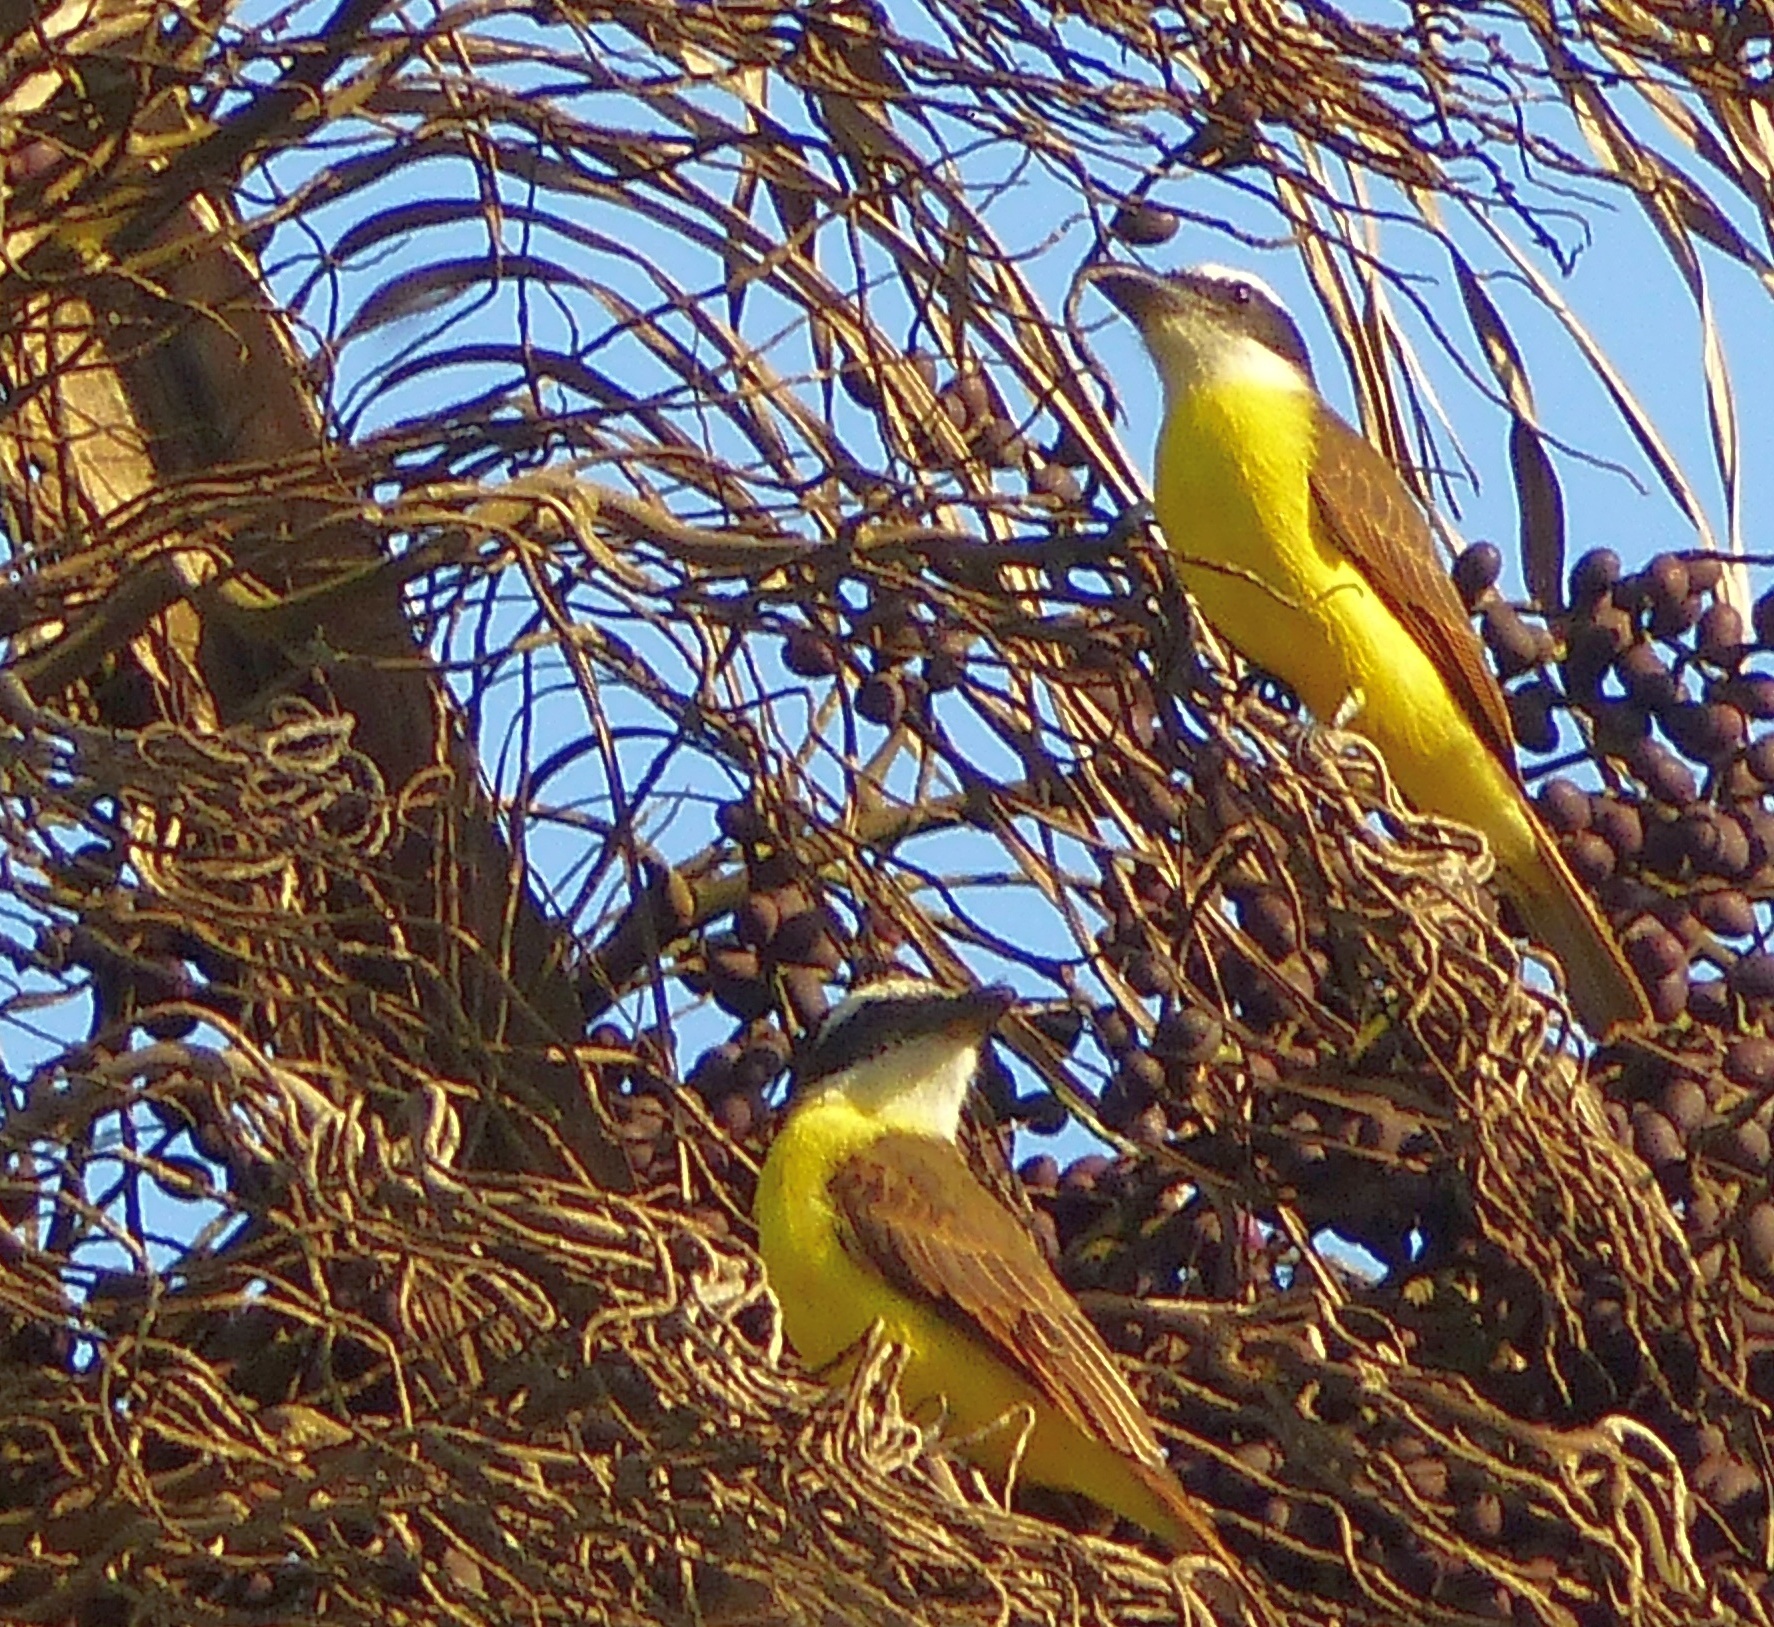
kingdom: Animalia
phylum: Chordata
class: Aves
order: Passeriformes
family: Tyrannidae
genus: Megarynchus
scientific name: Megarynchus pitangua
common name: Boat-billed flycatcher
